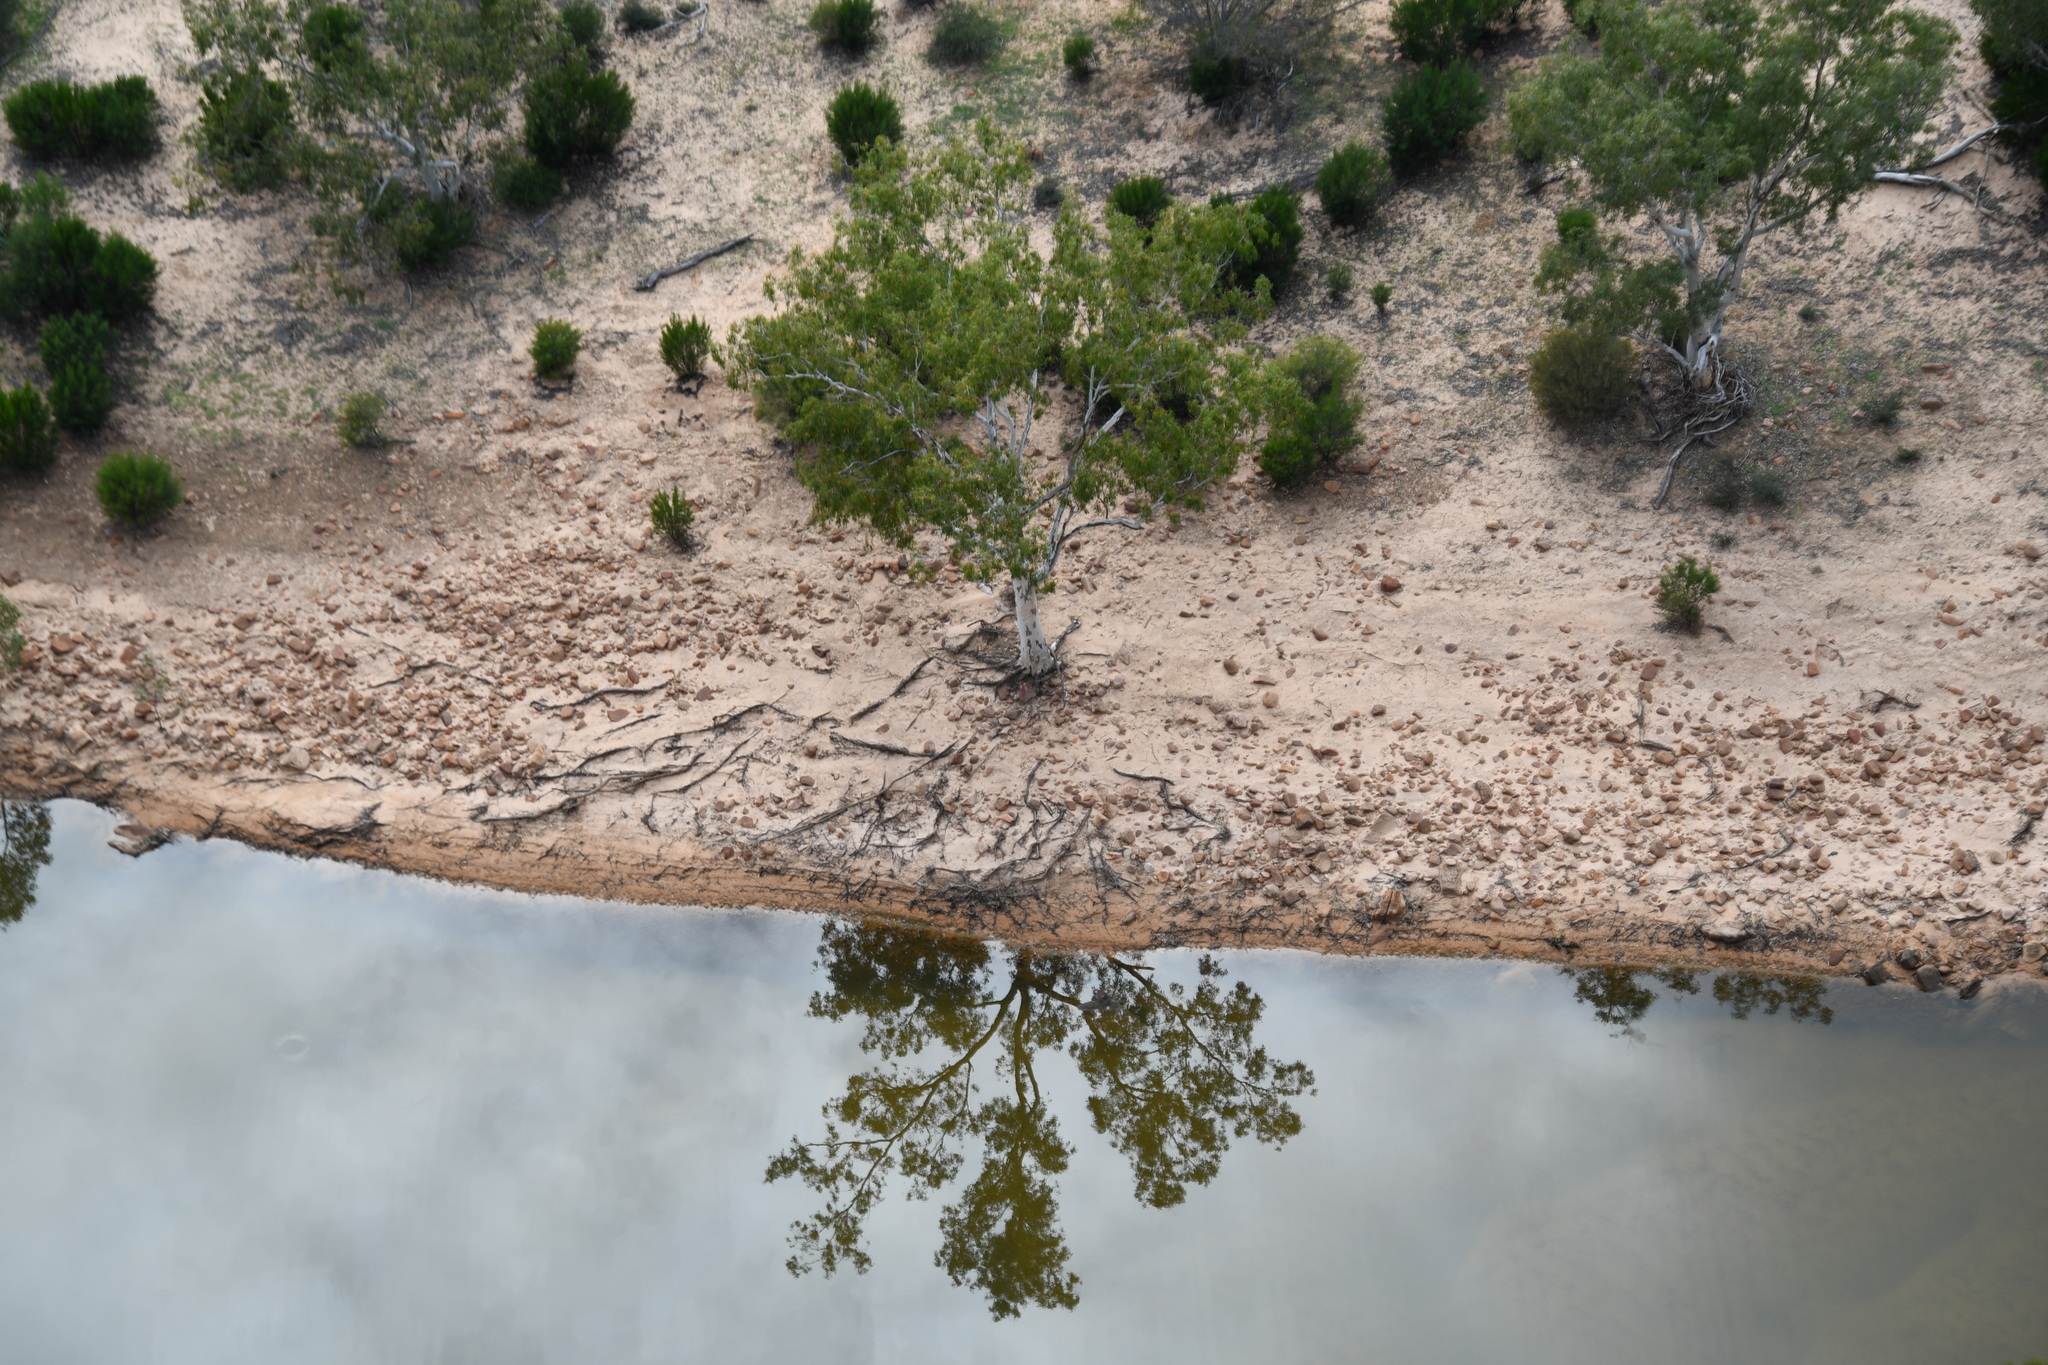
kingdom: Plantae
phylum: Tracheophyta
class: Magnoliopsida
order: Myrtales
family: Myrtaceae
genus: Eucalyptus
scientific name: Eucalyptus camaldulensis
